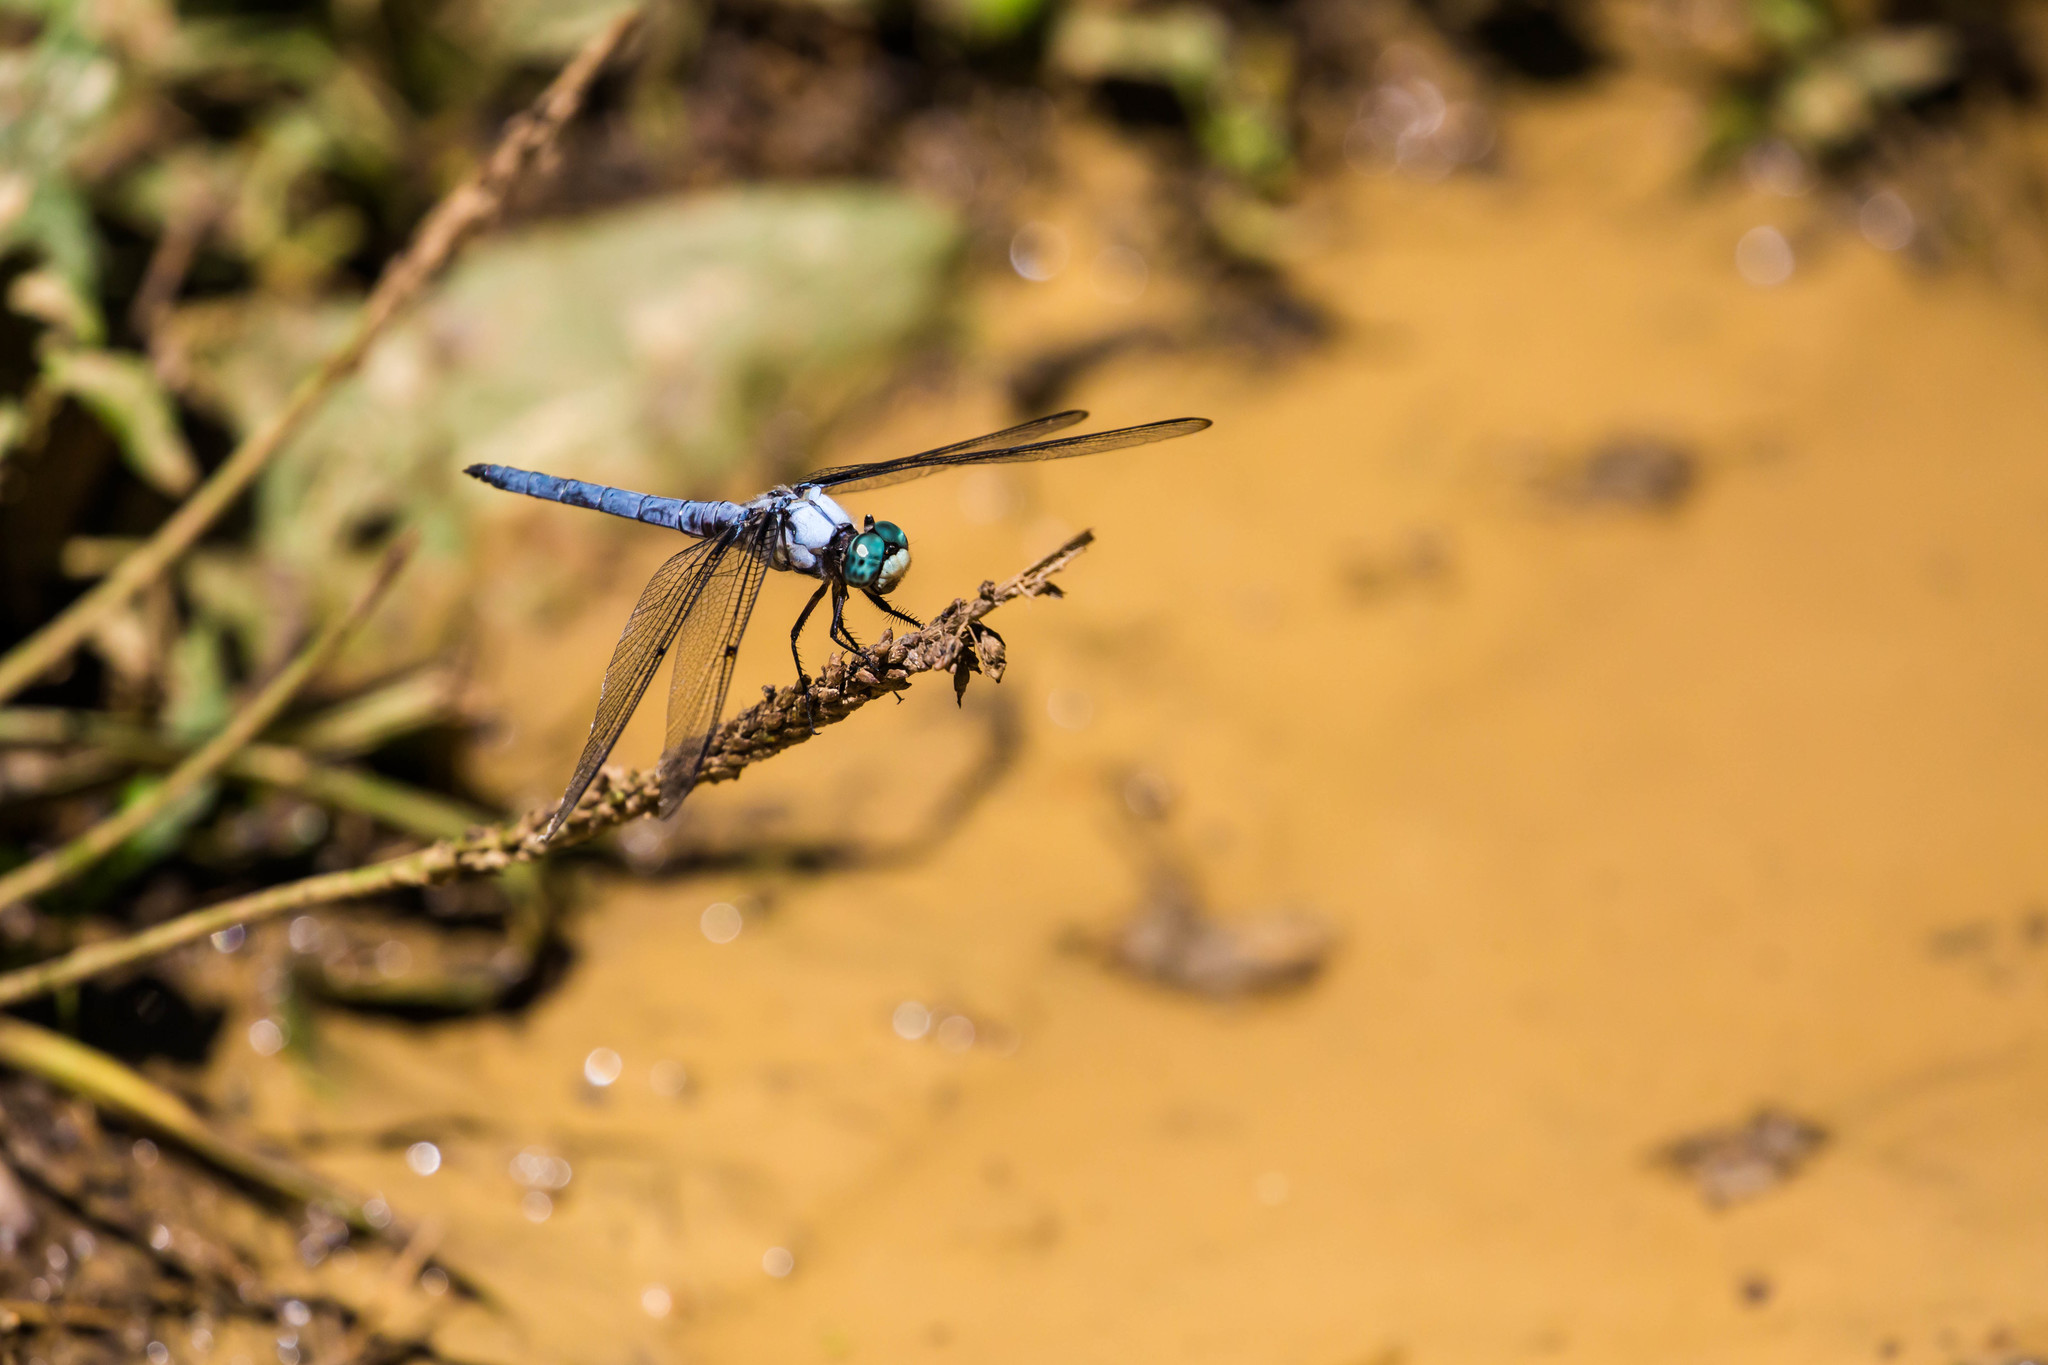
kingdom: Animalia
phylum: Arthropoda
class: Insecta
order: Odonata
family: Libellulidae
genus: Libellula
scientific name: Libellula vibrans
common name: Great blue skimmer
